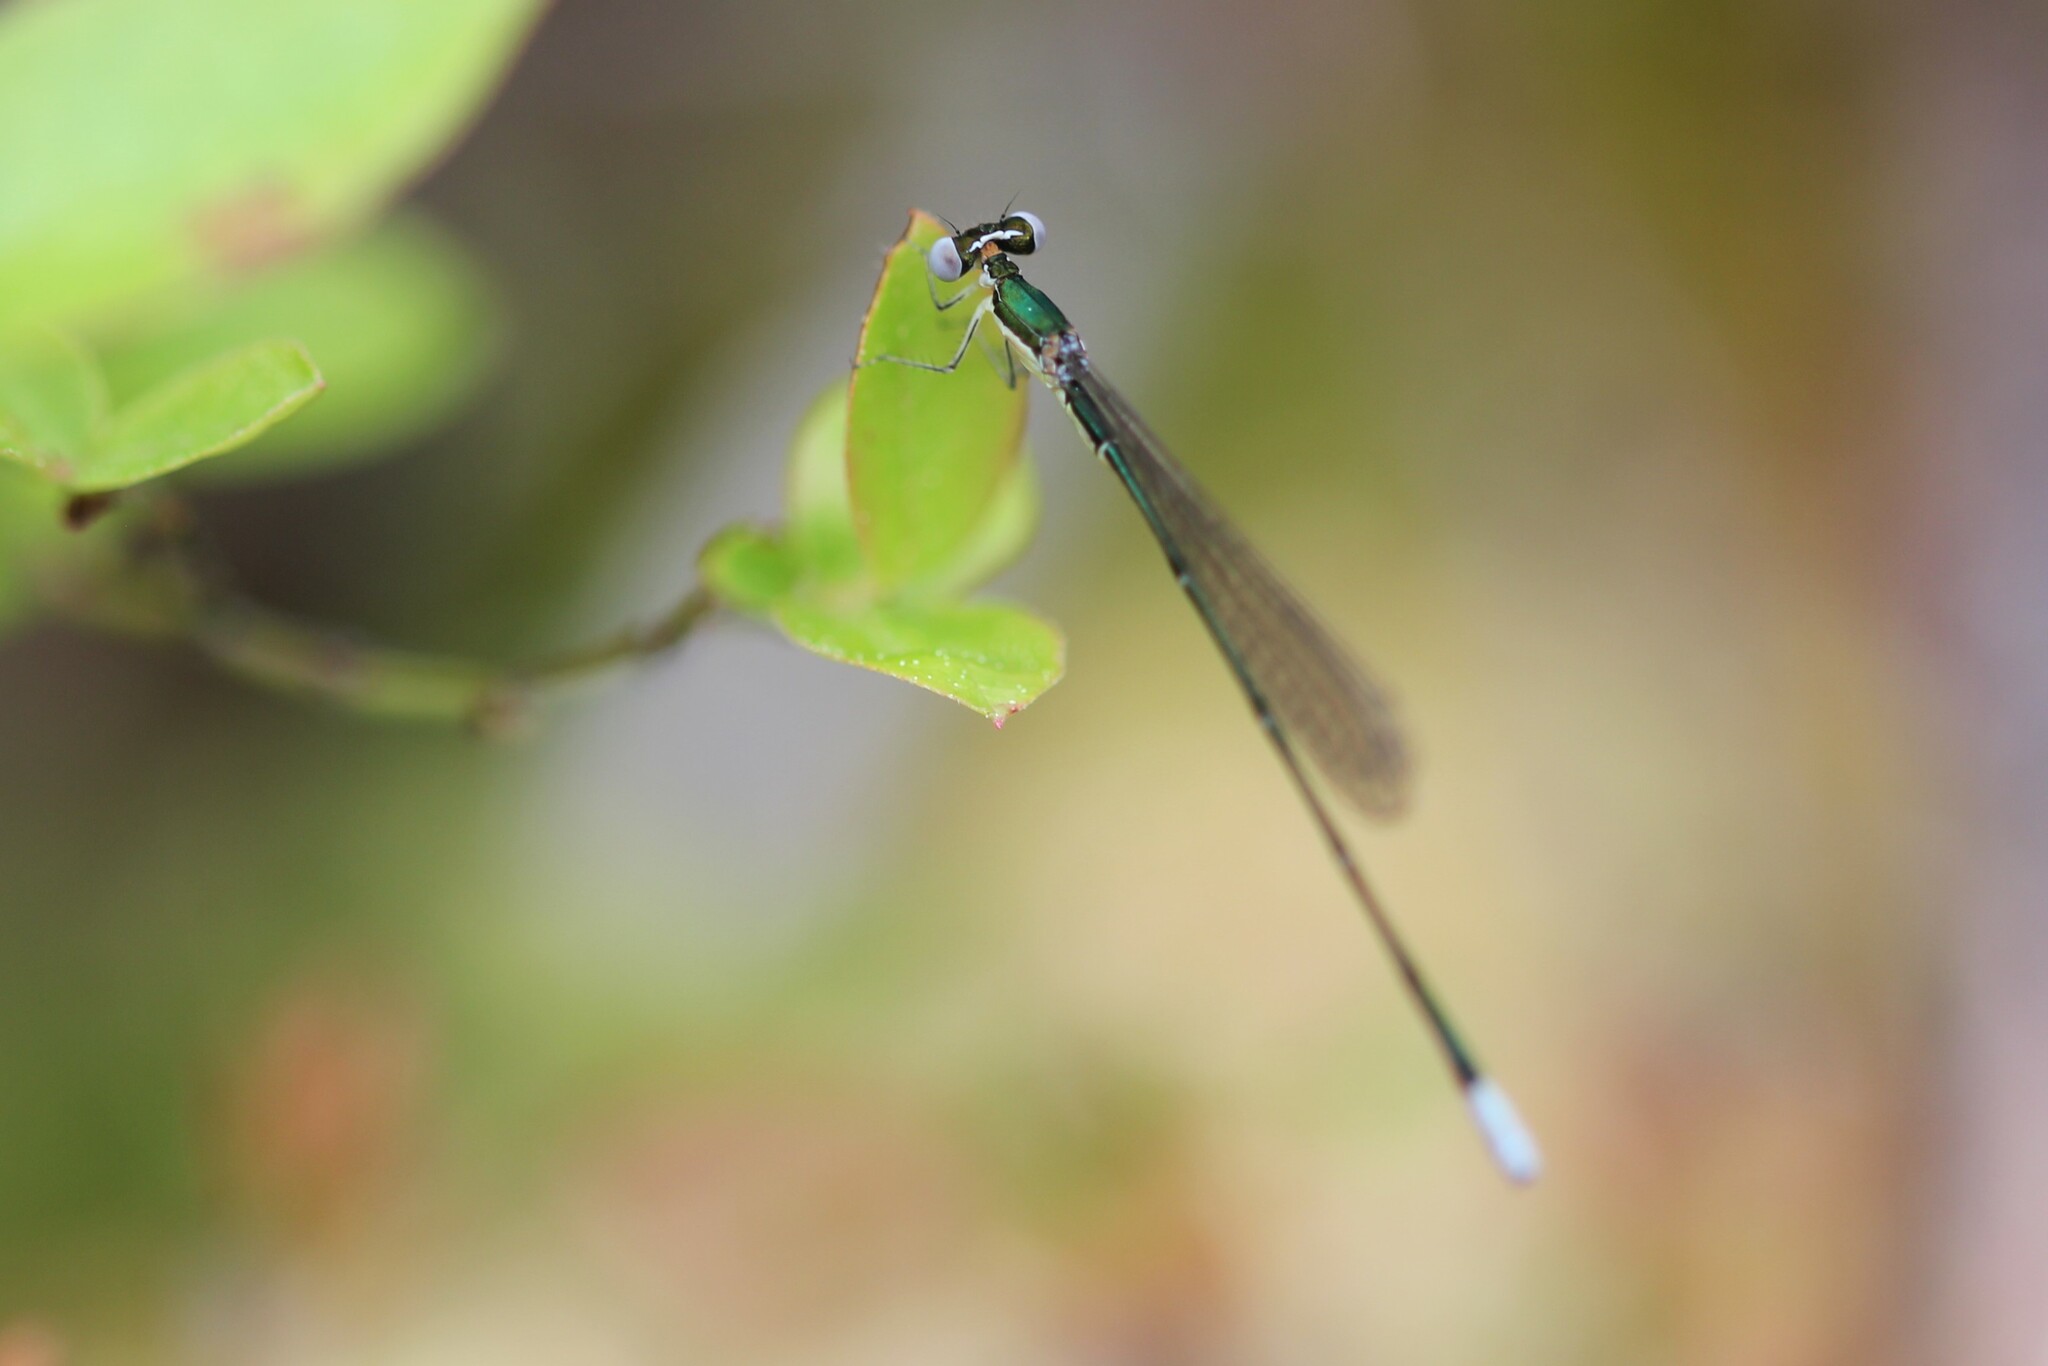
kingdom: Animalia
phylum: Arthropoda
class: Insecta
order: Odonata
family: Coenagrionidae
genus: Nehalennia
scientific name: Nehalennia gracilis
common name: Sphagnum sprite
